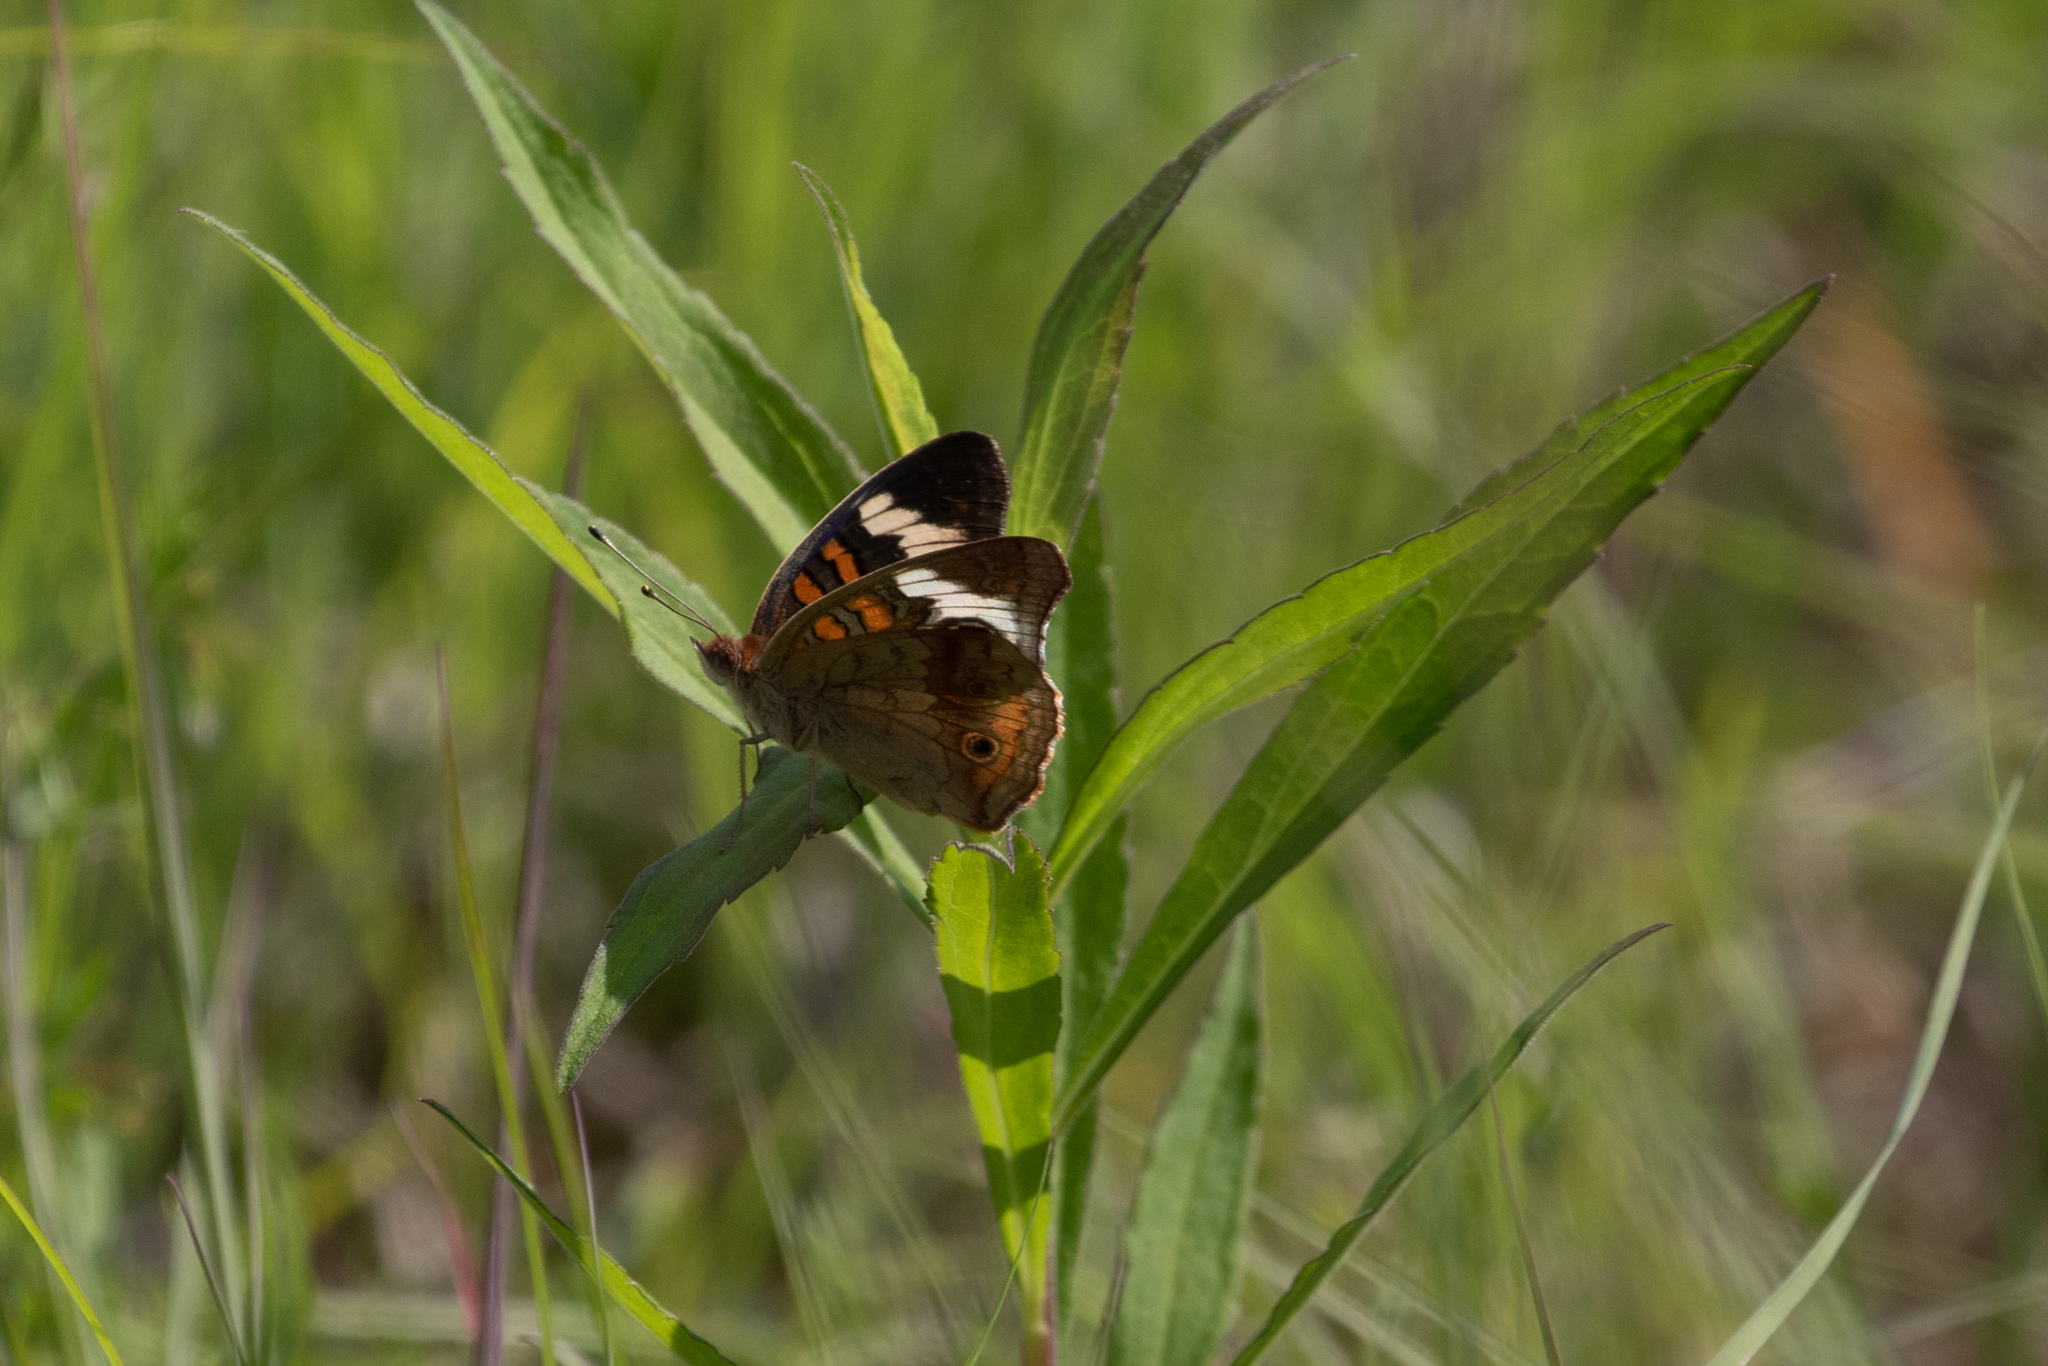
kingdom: Animalia
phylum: Arthropoda
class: Insecta
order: Lepidoptera
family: Nymphalidae
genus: Junonia
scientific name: Junonia coenia
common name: Common buckeye
